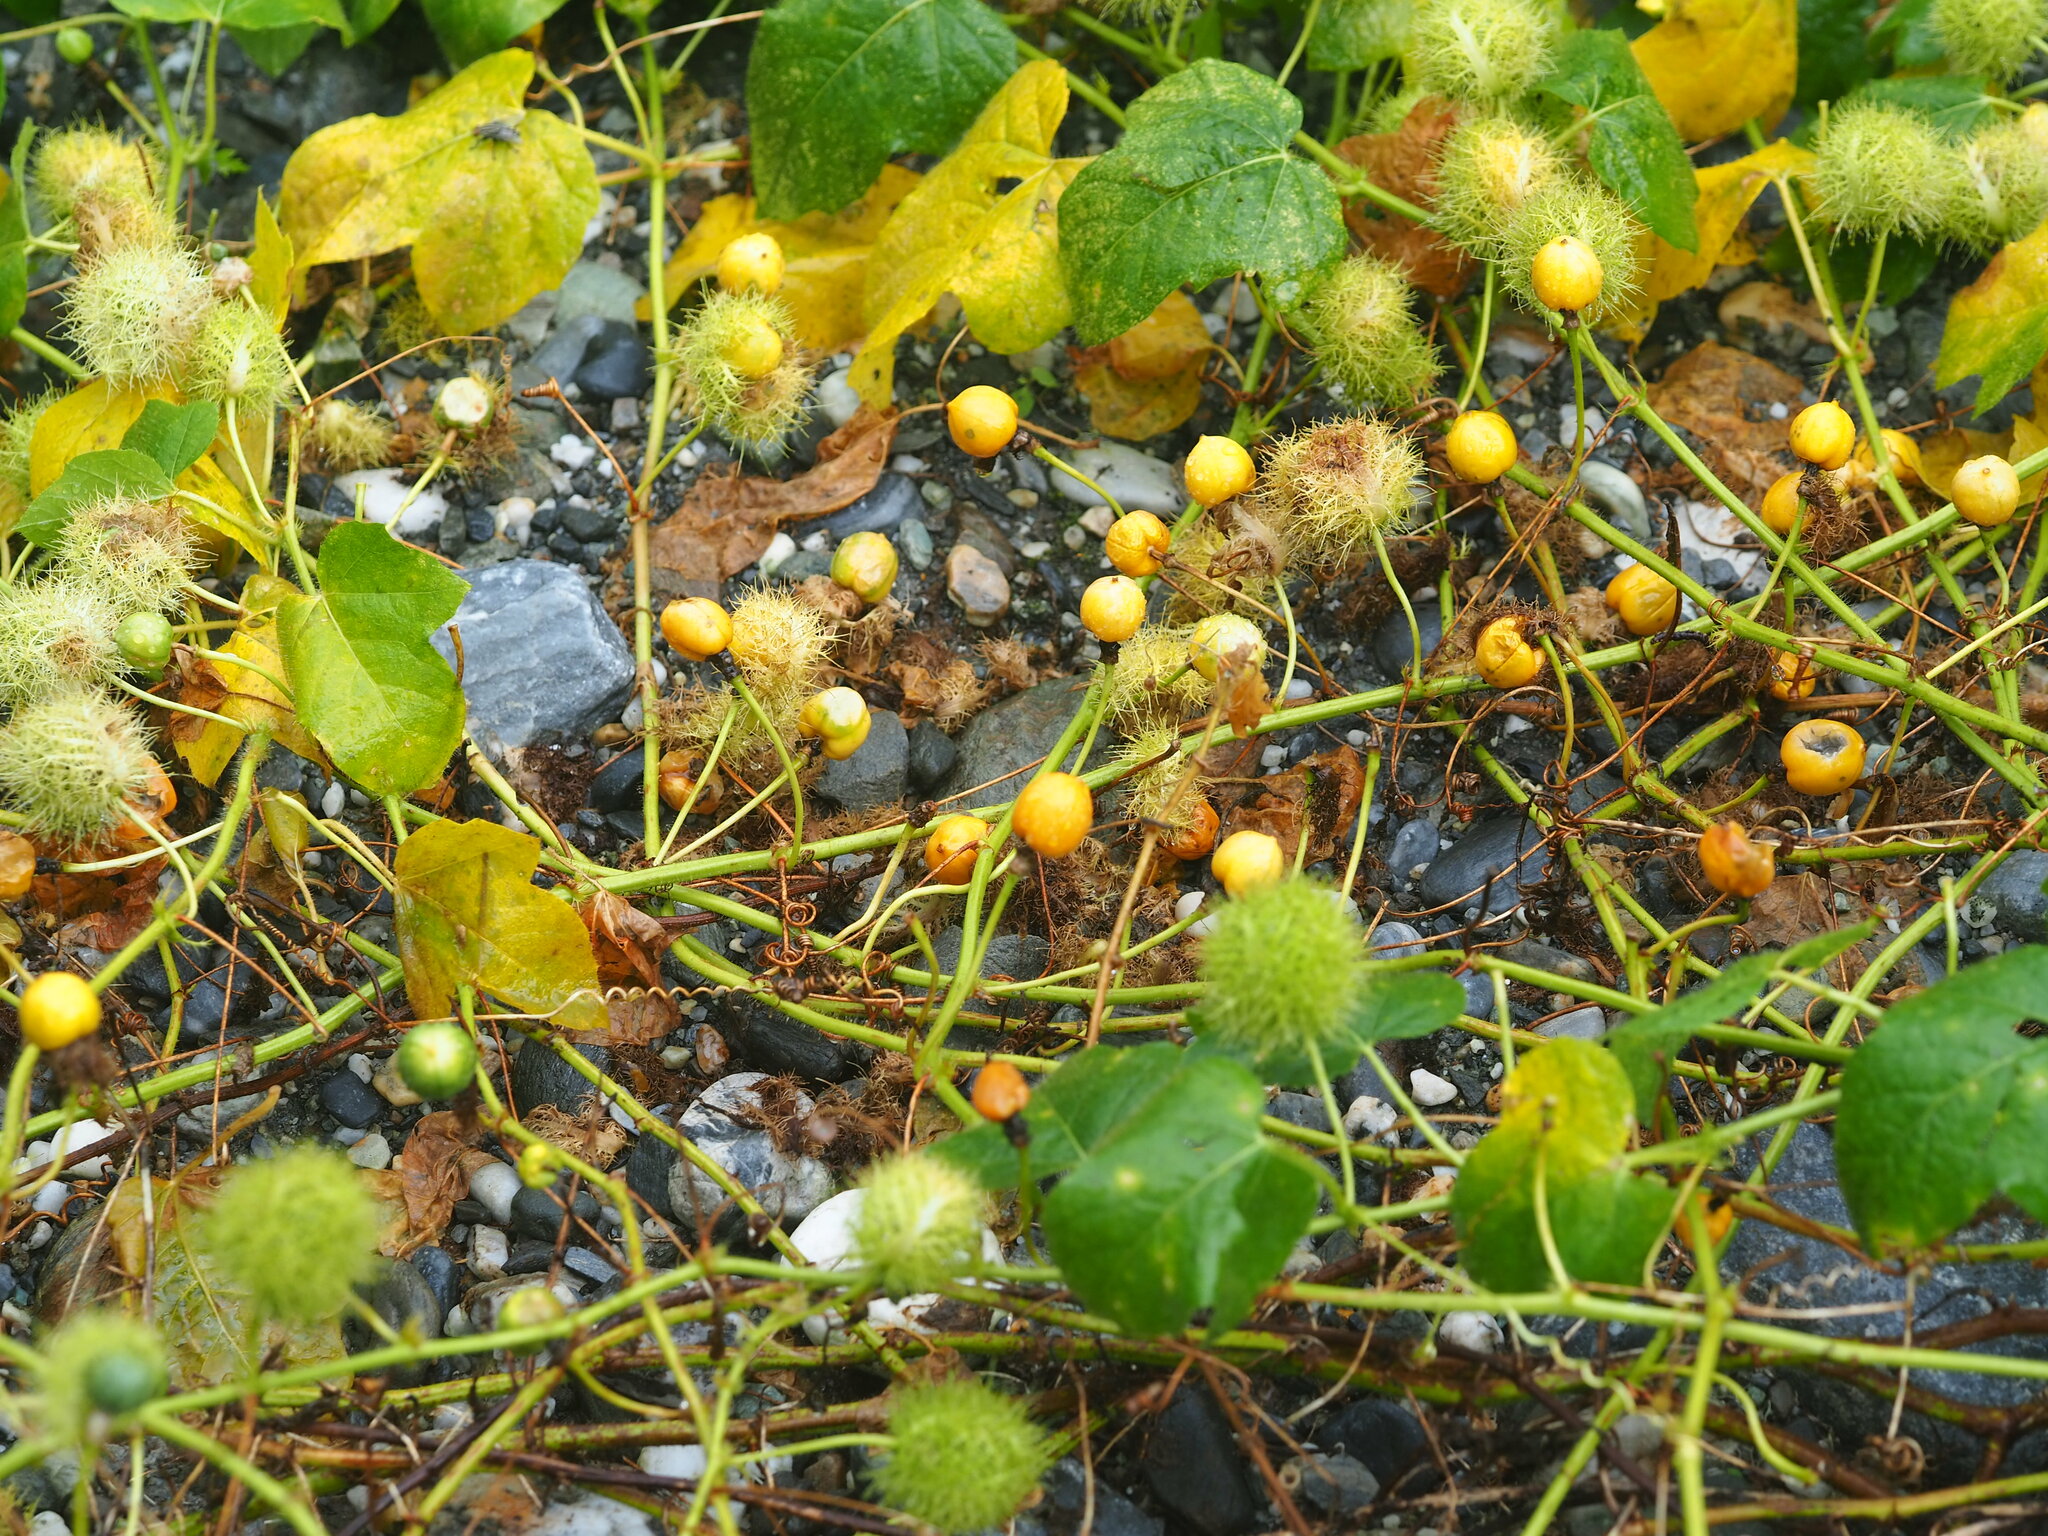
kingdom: Plantae
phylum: Tracheophyta
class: Magnoliopsida
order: Malpighiales
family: Passifloraceae
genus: Passiflora
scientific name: Passiflora vesicaria
